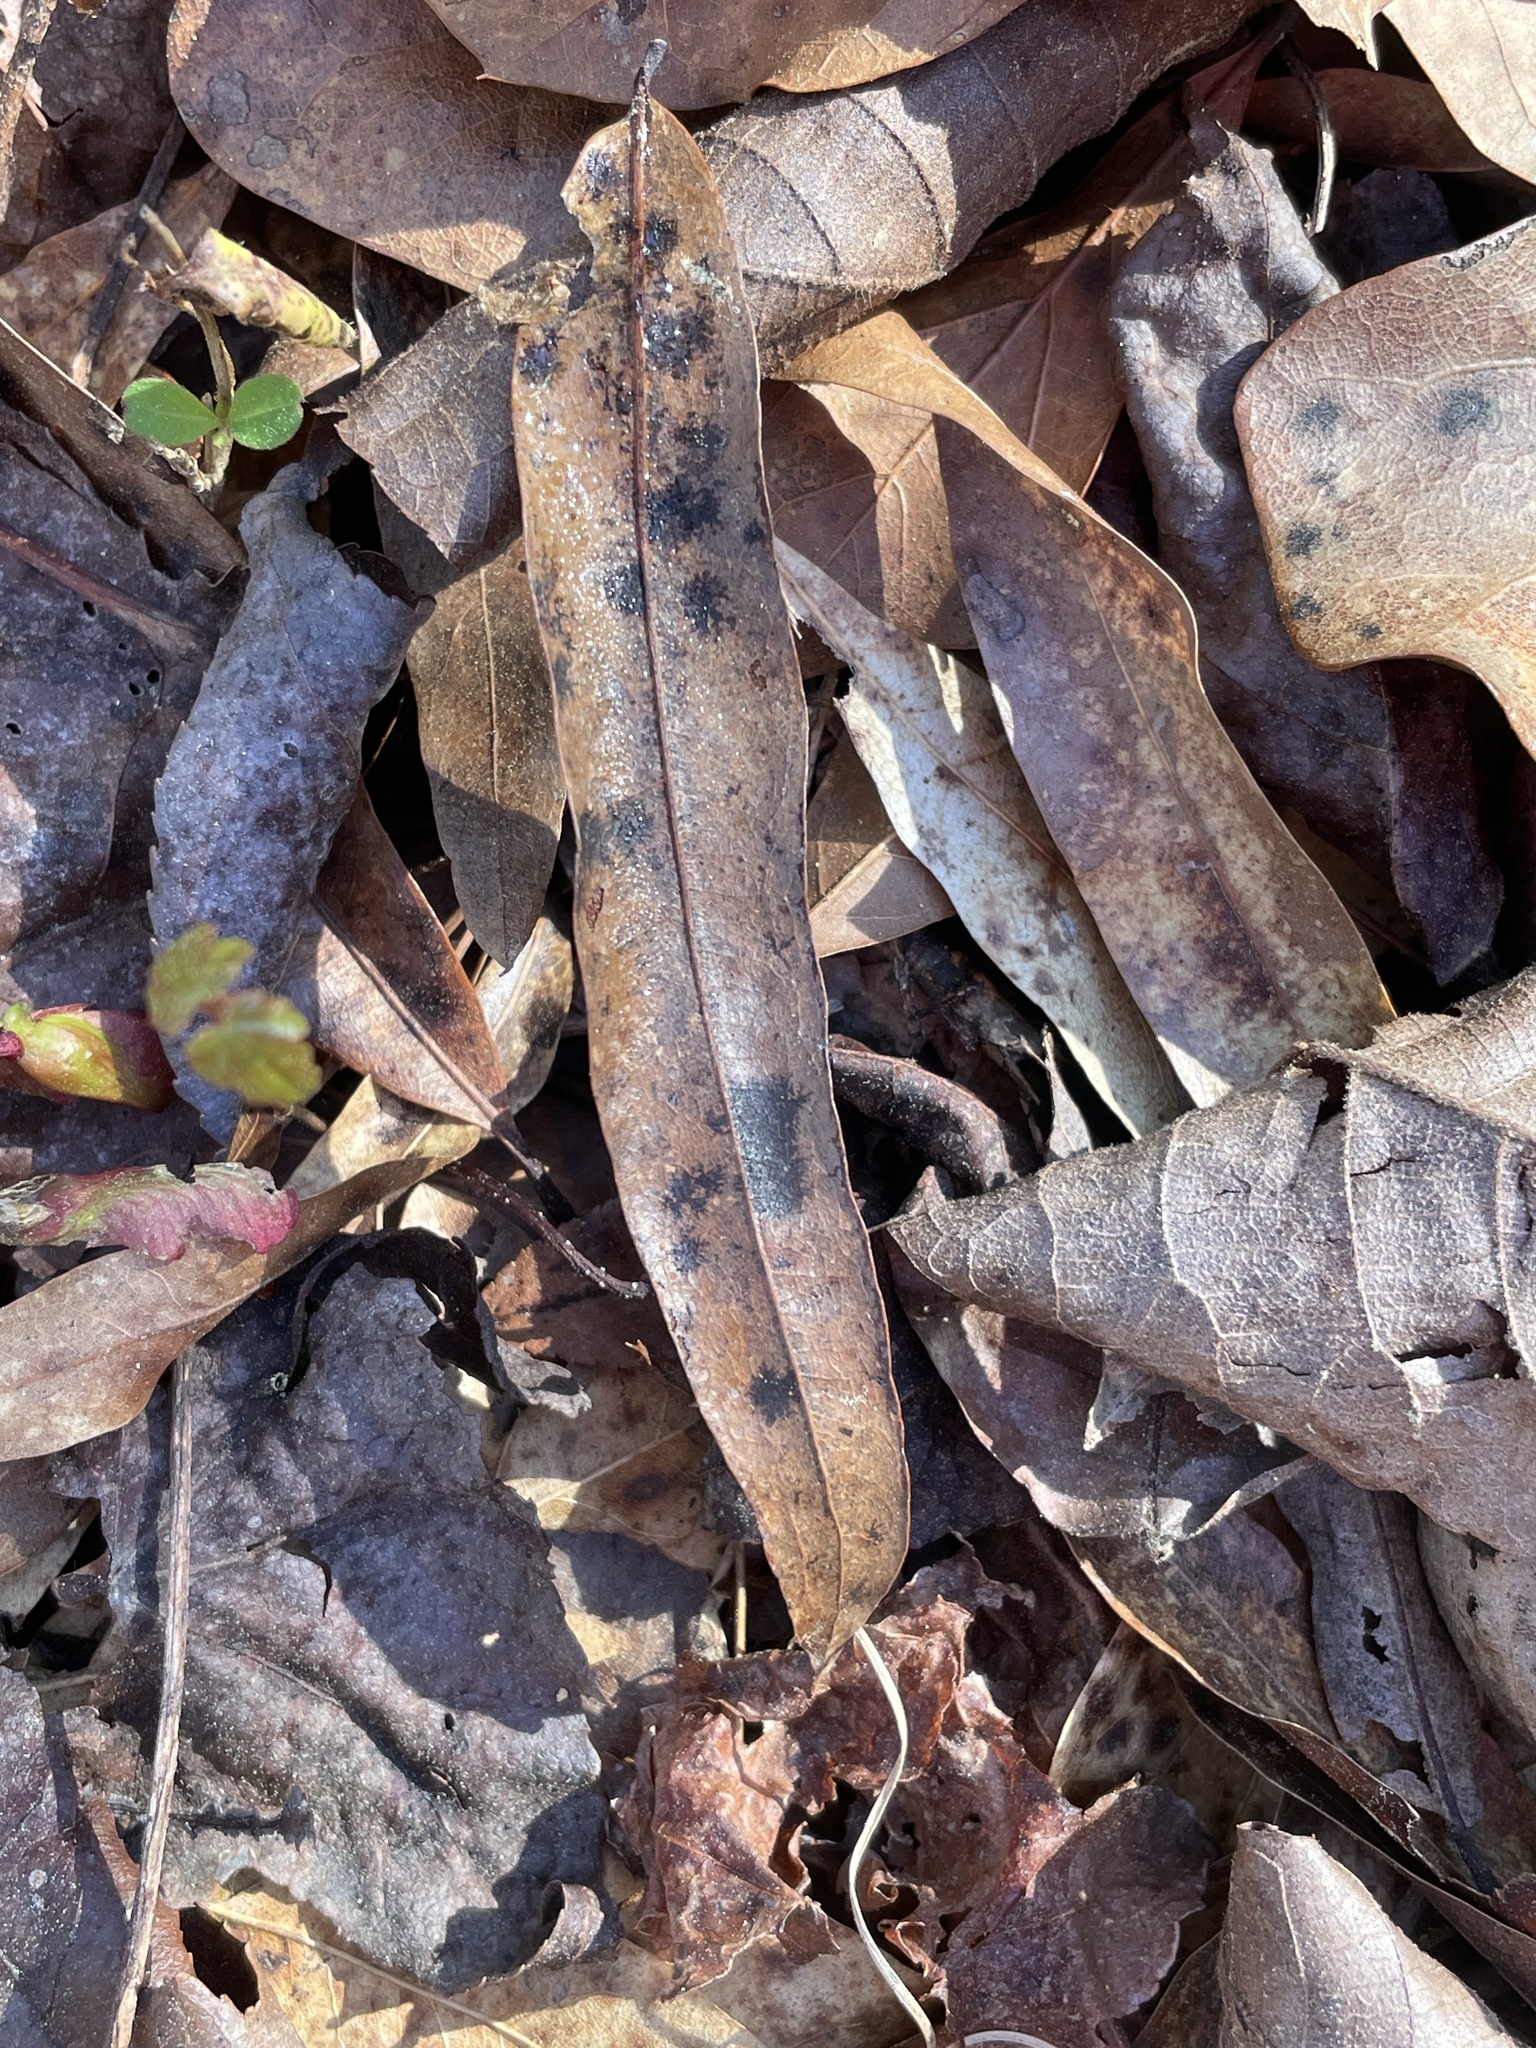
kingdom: Plantae
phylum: Tracheophyta
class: Magnoliopsida
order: Fagales
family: Fagaceae
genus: Quercus
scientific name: Quercus phellos
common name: Willow oak
